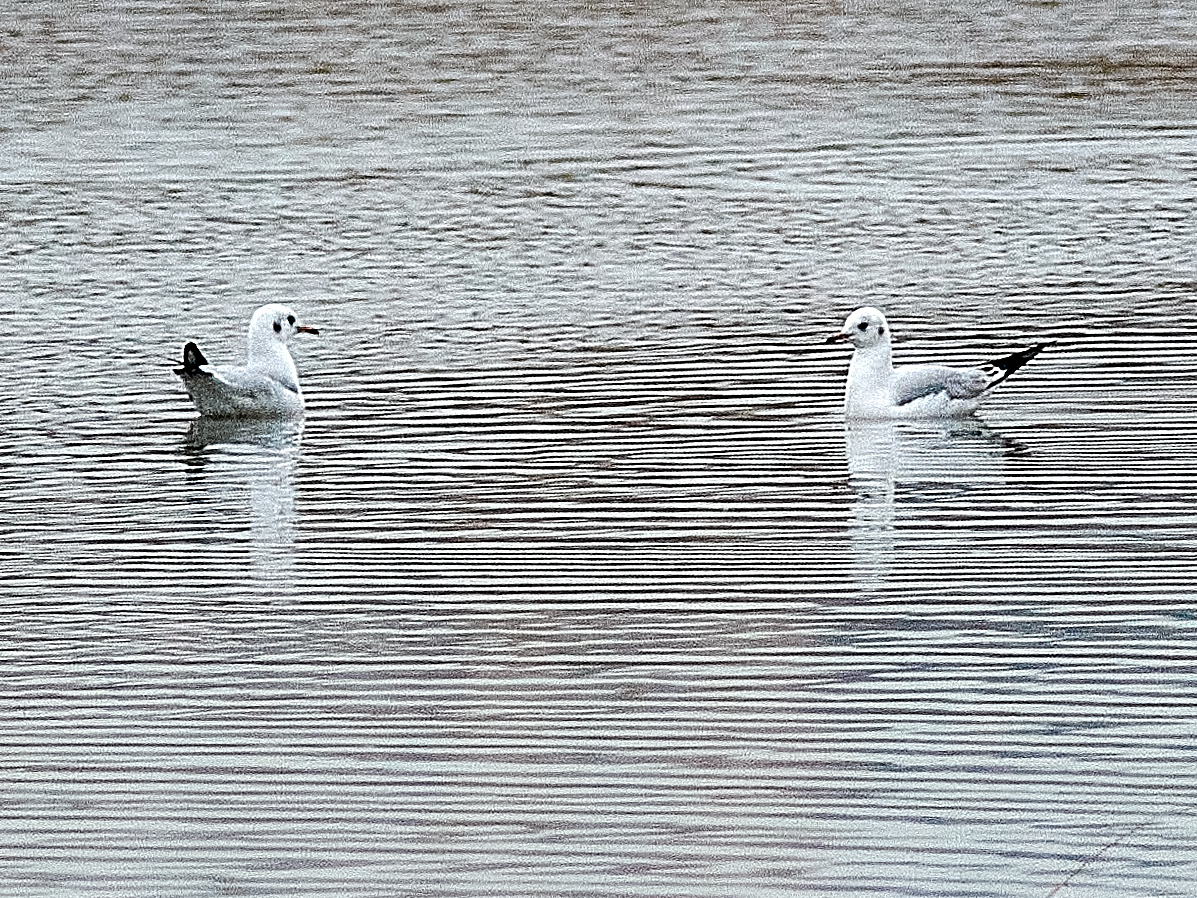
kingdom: Animalia
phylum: Chordata
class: Aves
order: Charadriiformes
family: Laridae
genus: Chroicocephalus
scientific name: Chroicocephalus ridibundus
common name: Black-headed gull
